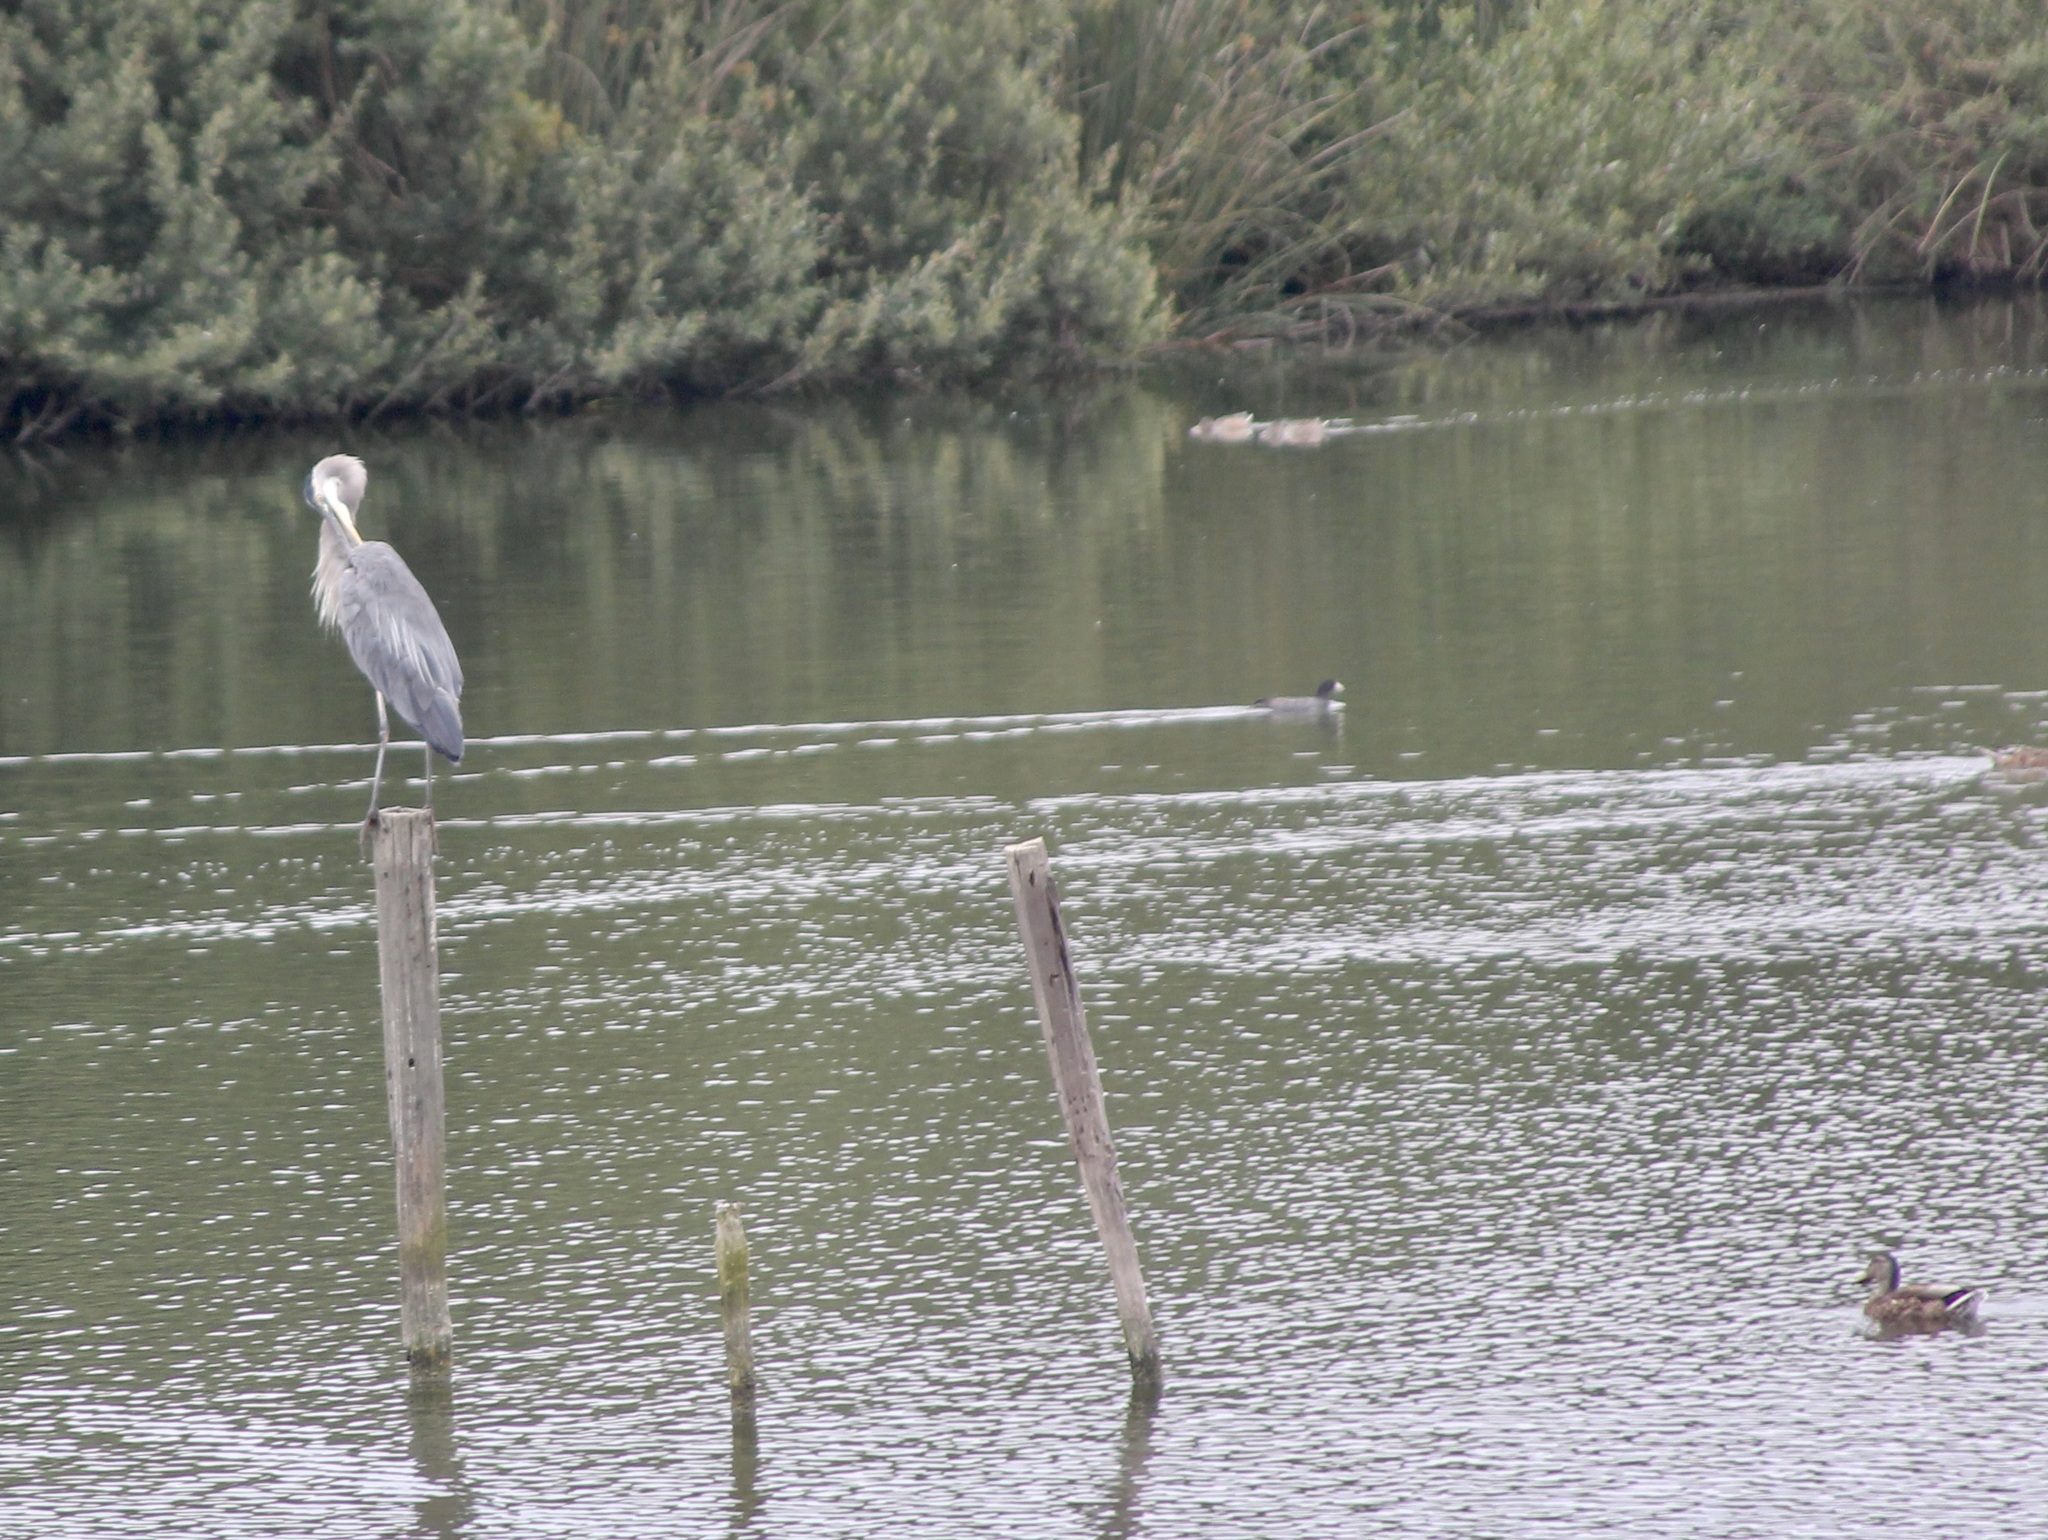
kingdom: Animalia
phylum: Chordata
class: Aves
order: Pelecaniformes
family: Ardeidae
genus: Ardea
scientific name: Ardea herodias
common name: Great blue heron
